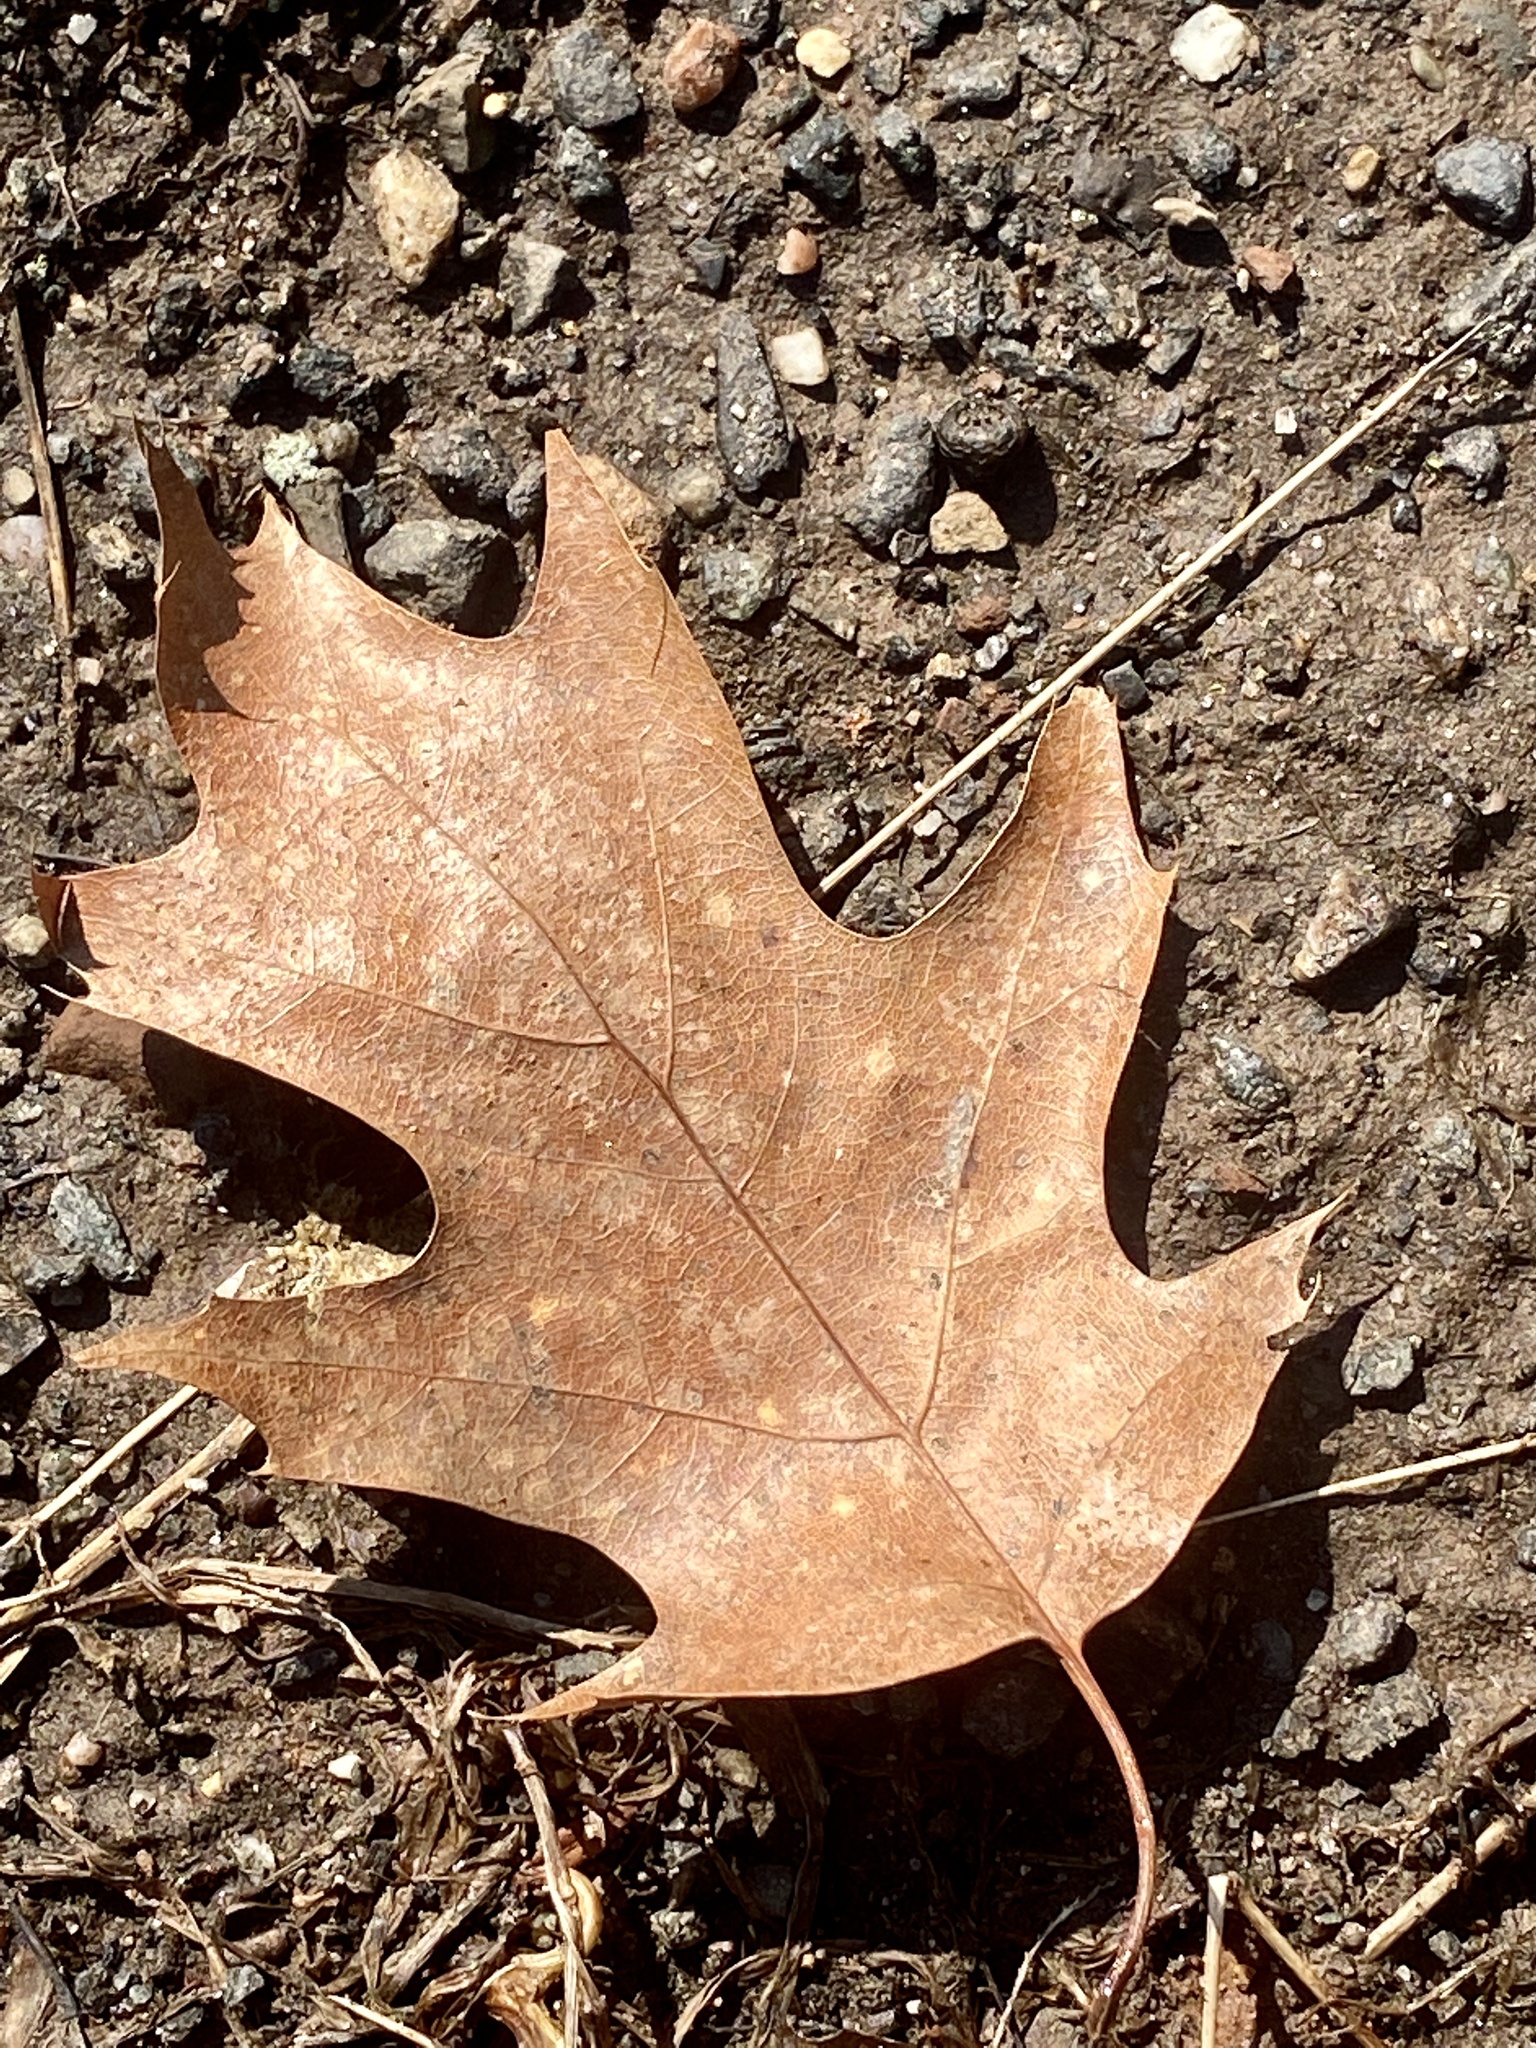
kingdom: Plantae
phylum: Tracheophyta
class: Magnoliopsida
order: Fagales
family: Fagaceae
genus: Quercus
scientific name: Quercus rubra
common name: Red oak
